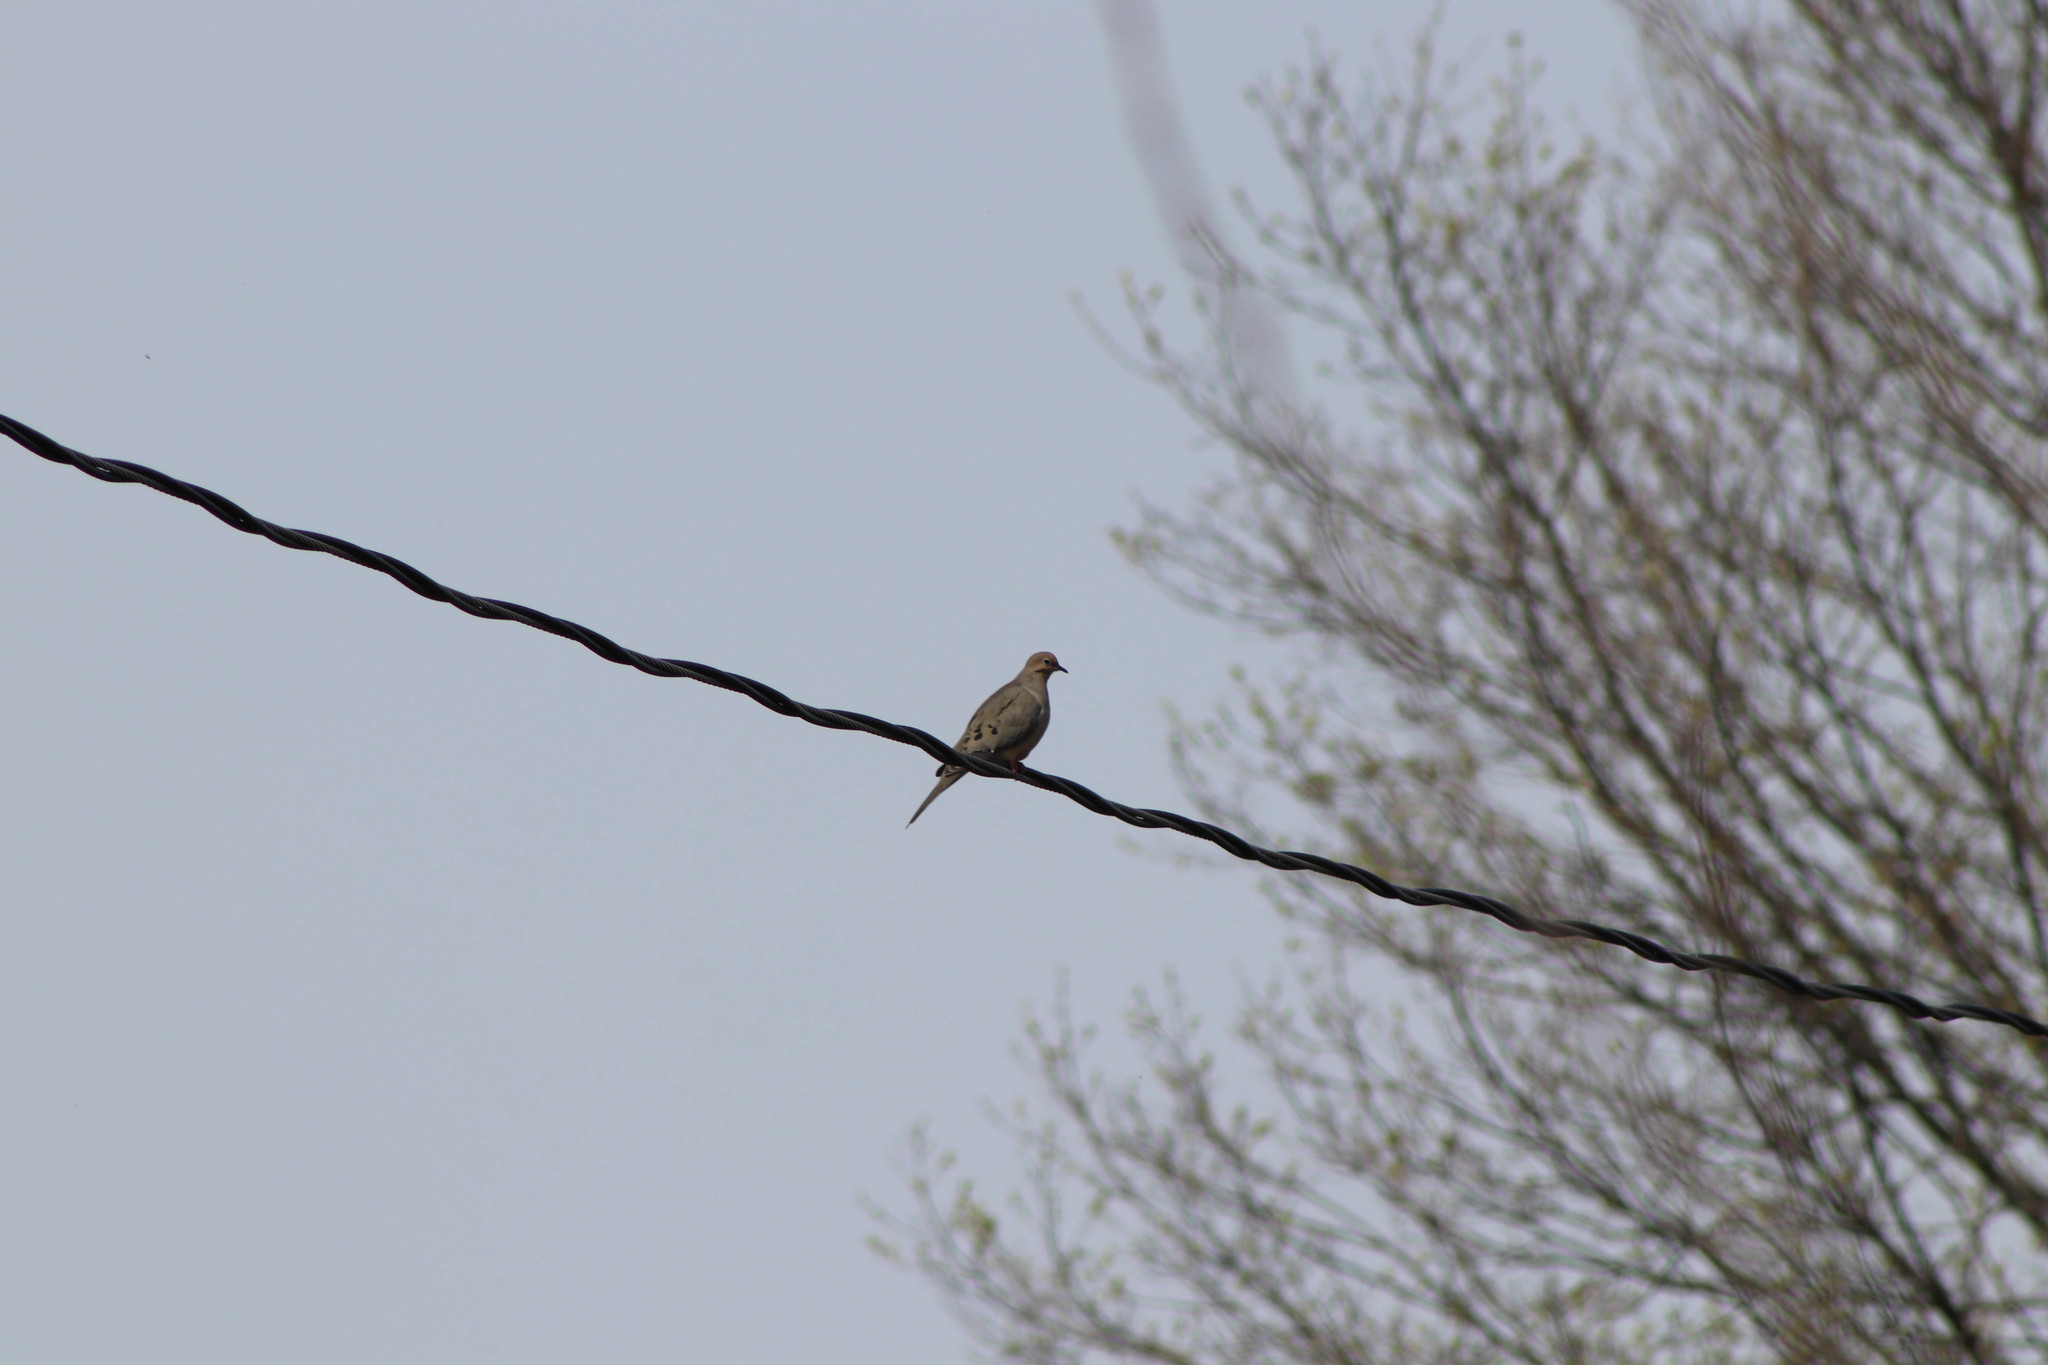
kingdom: Animalia
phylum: Chordata
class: Aves
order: Columbiformes
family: Columbidae
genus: Zenaida
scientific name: Zenaida macroura
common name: Mourning dove
